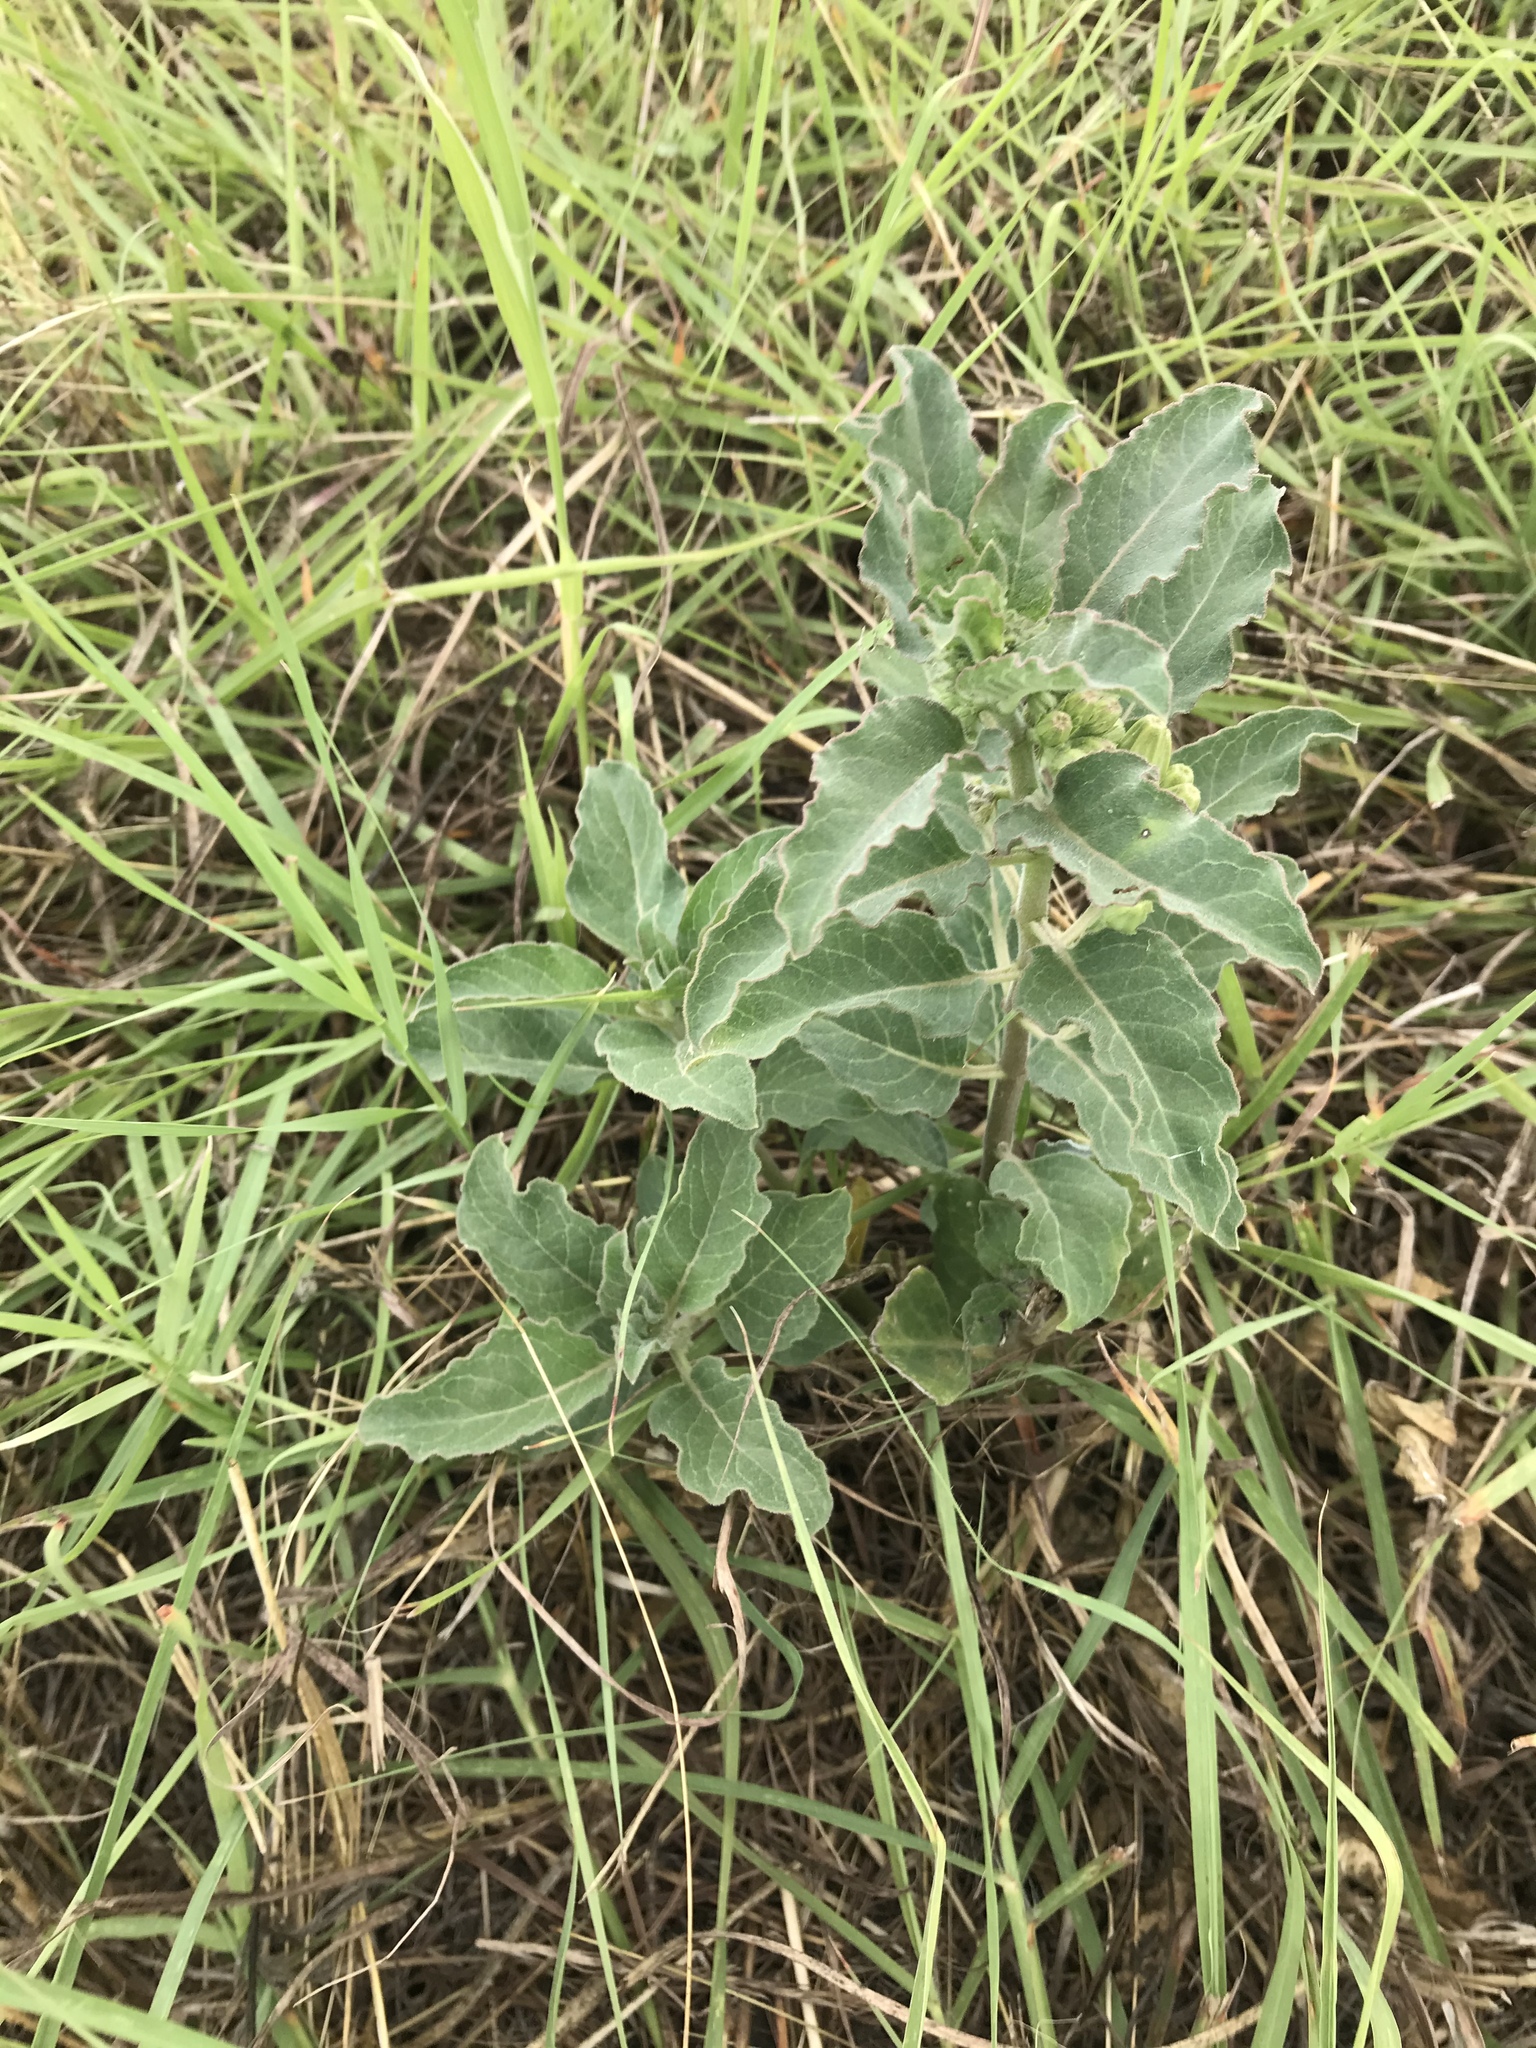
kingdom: Plantae
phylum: Tracheophyta
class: Magnoliopsida
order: Gentianales
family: Apocynaceae
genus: Asclepias
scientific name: Asclepias oenotheroides
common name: Zizotes milkweed
